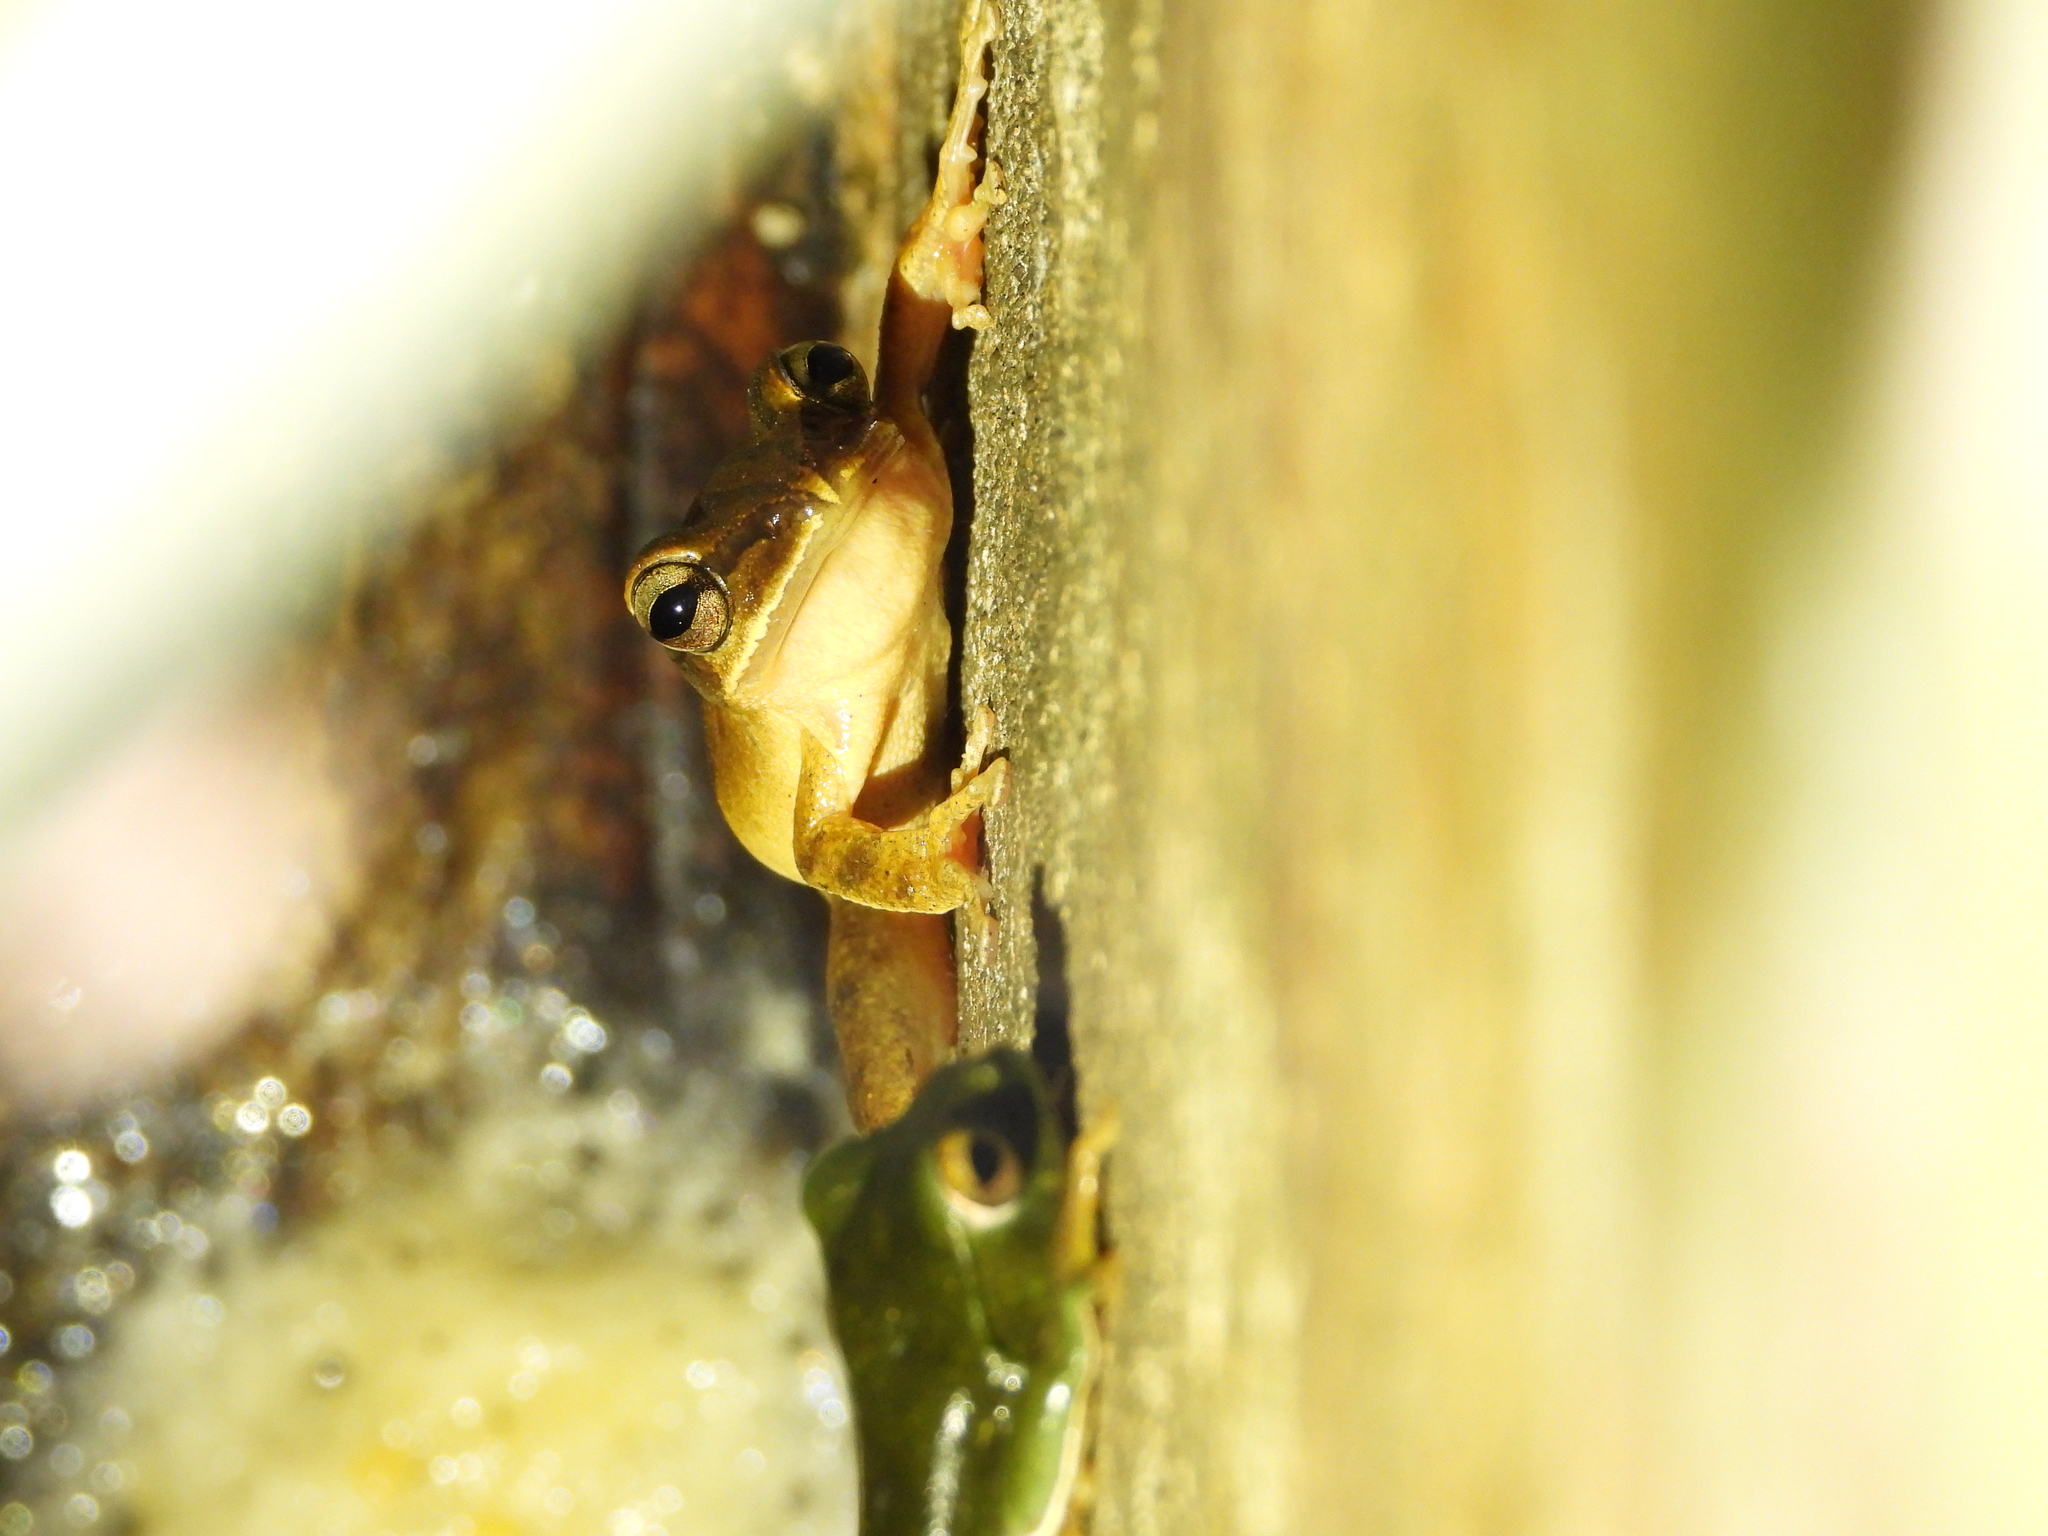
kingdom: Animalia
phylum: Chordata
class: Amphibia
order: Anura
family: Rhacophoridae
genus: Polypedates
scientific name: Polypedates braueri
